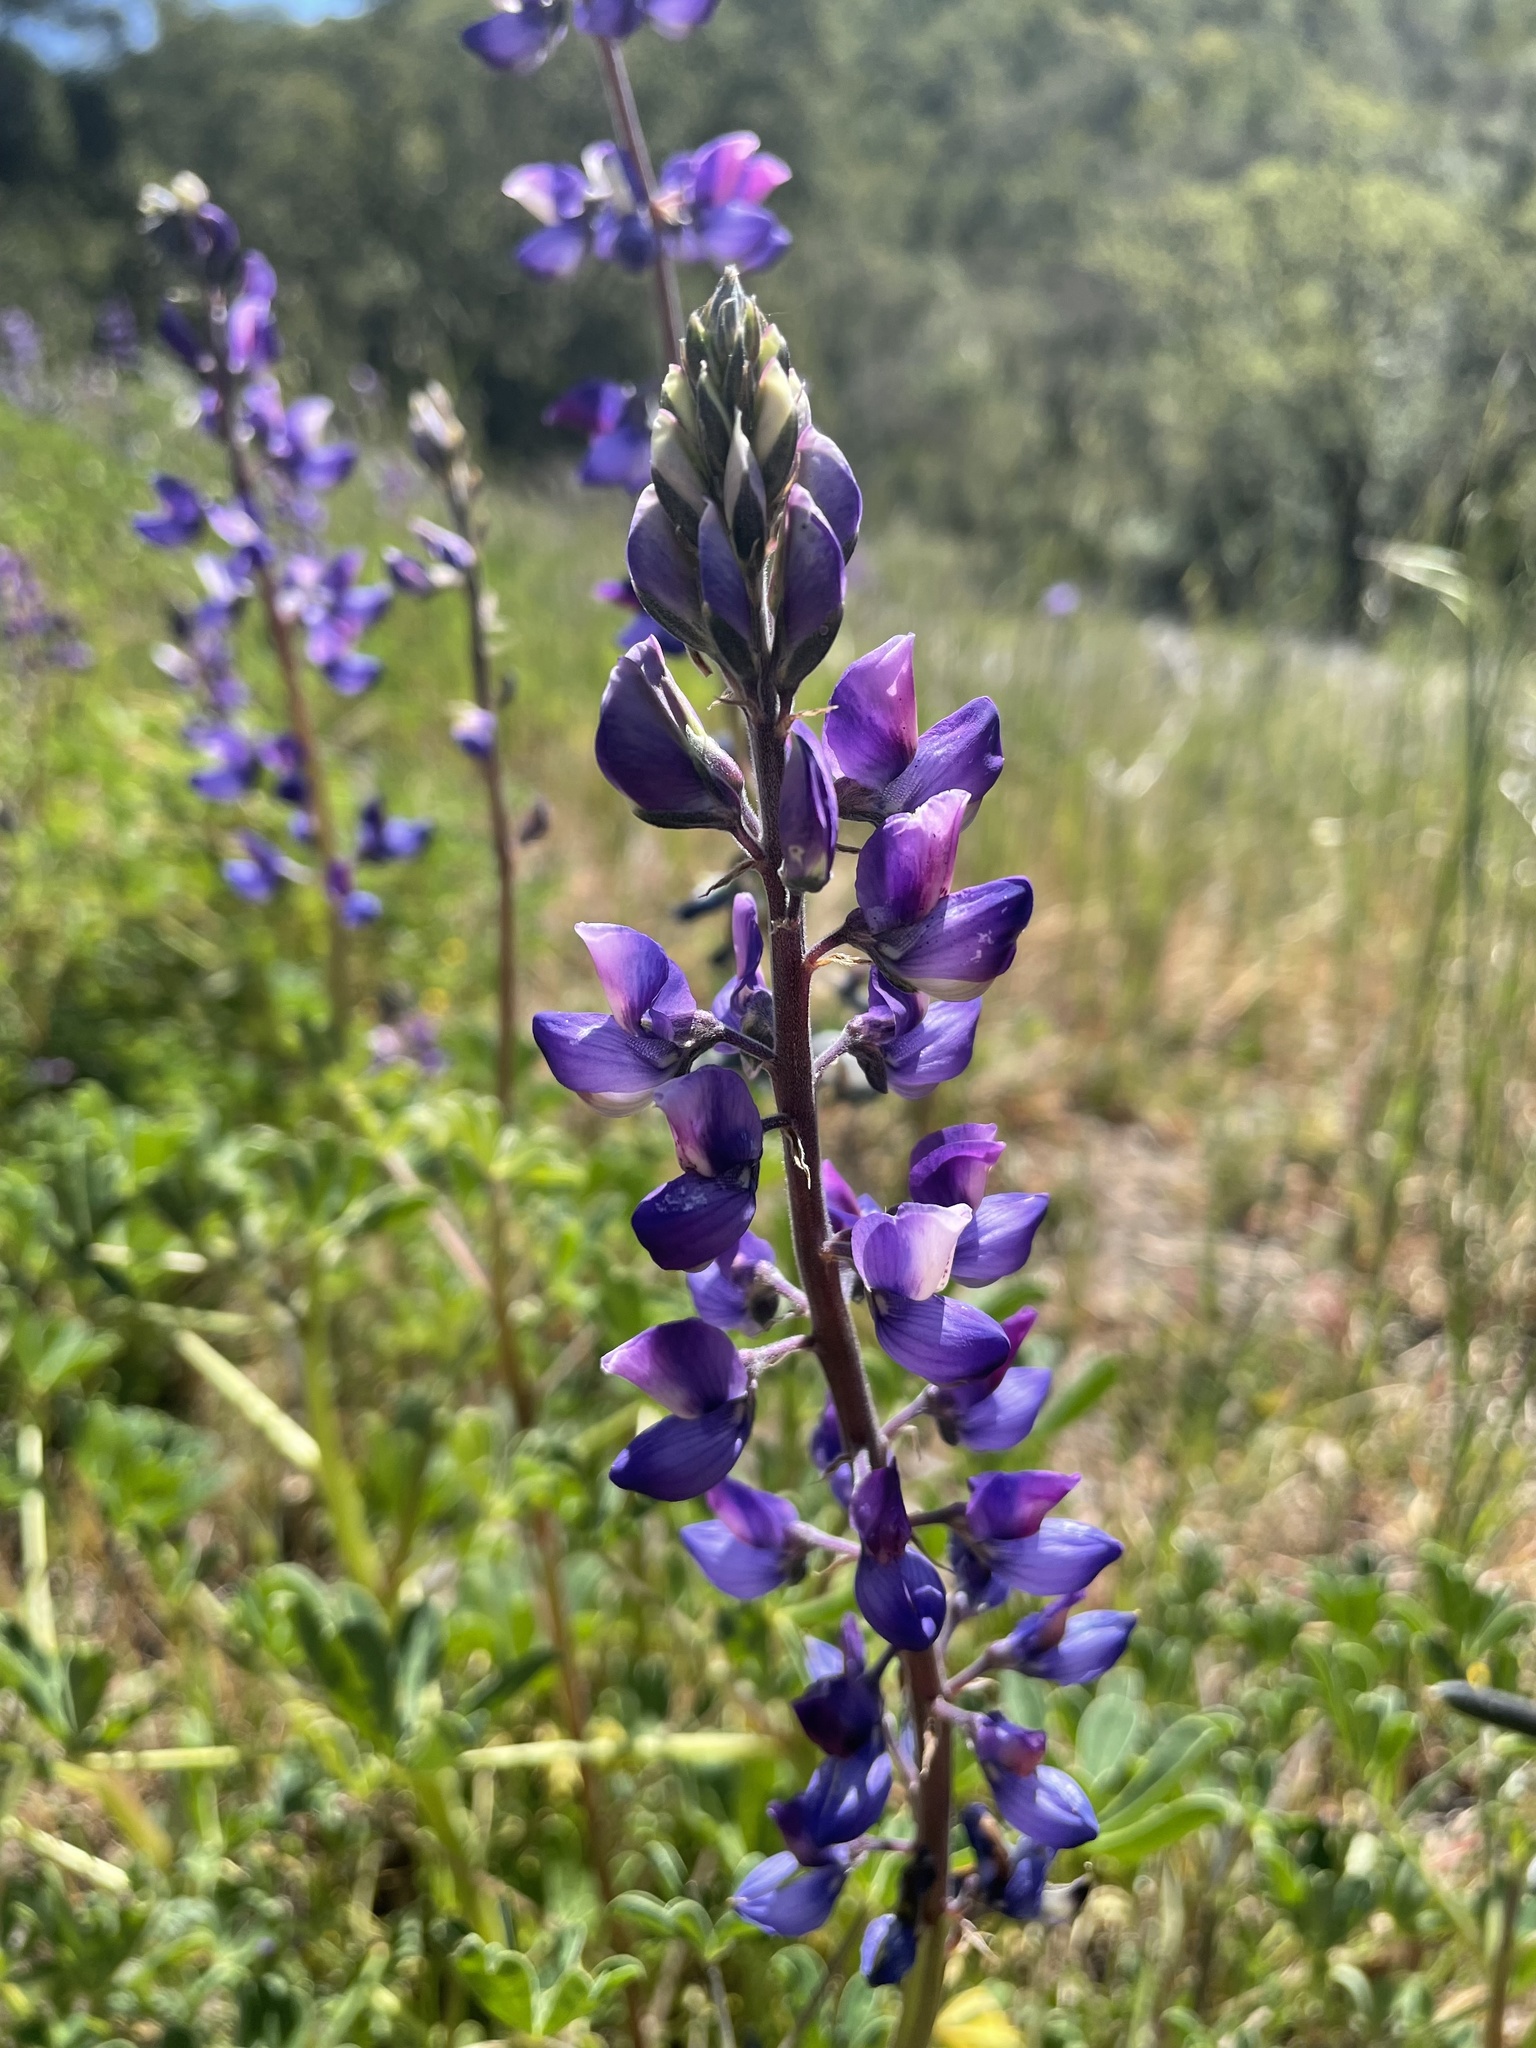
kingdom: Plantae
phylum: Tracheophyta
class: Magnoliopsida
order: Fabales
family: Fabaceae
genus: Lupinus
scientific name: Lupinus succulentus
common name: Arroyo lupine
